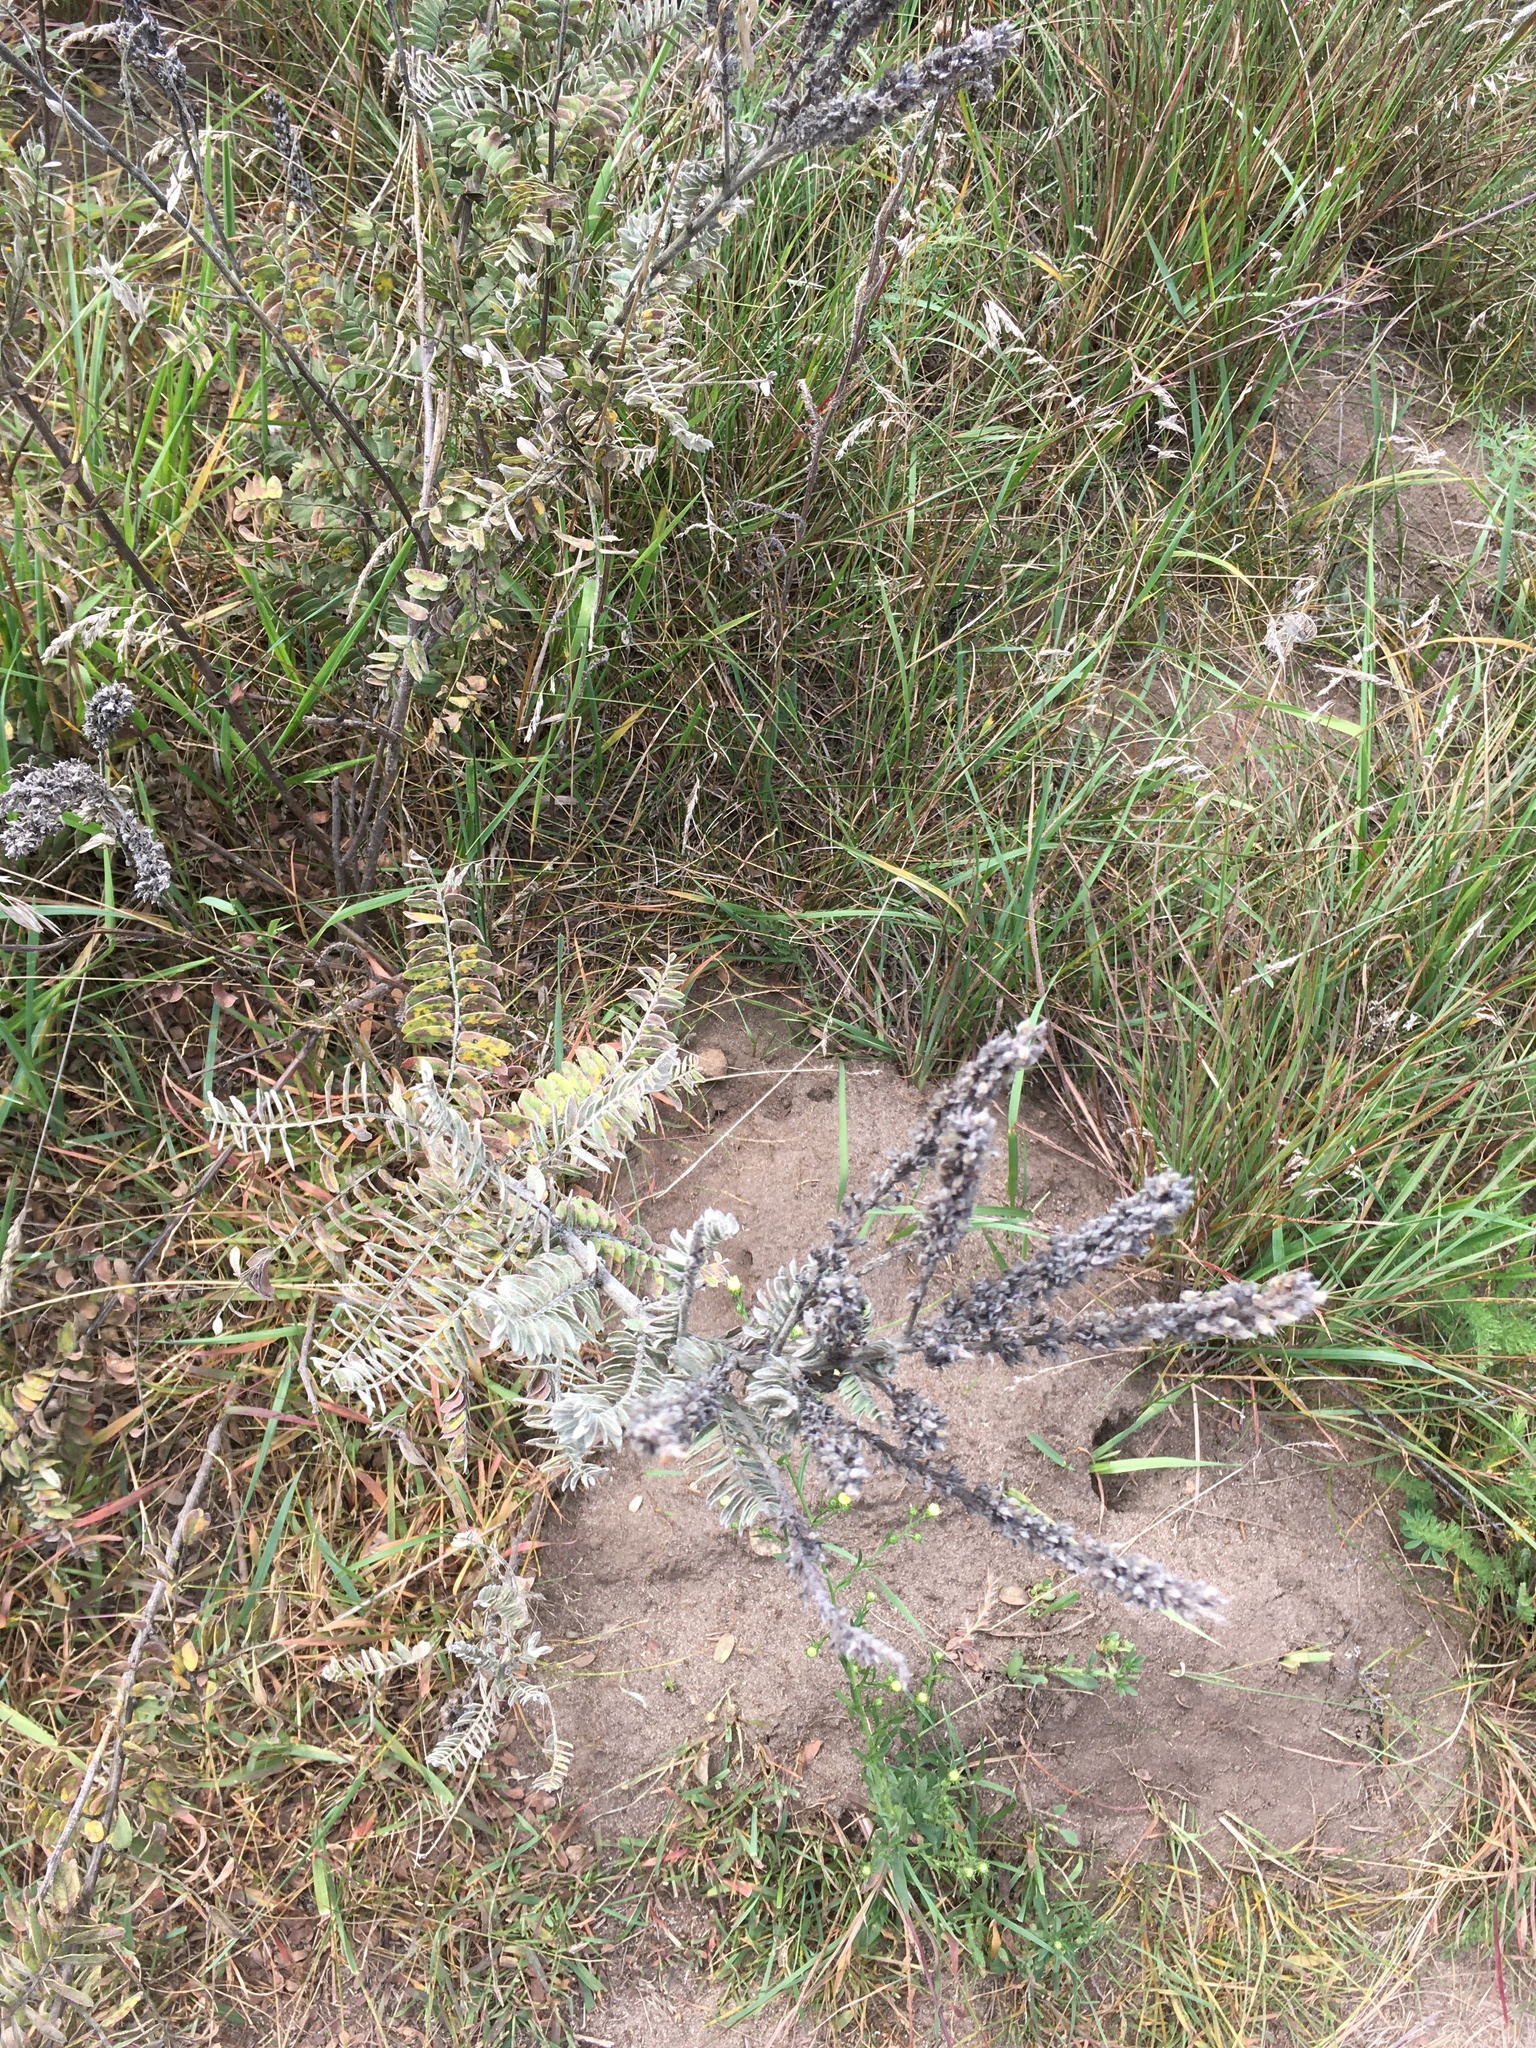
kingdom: Plantae
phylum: Tracheophyta
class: Magnoliopsida
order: Fabales
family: Fabaceae
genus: Amorpha
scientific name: Amorpha canescens
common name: Leadplant
